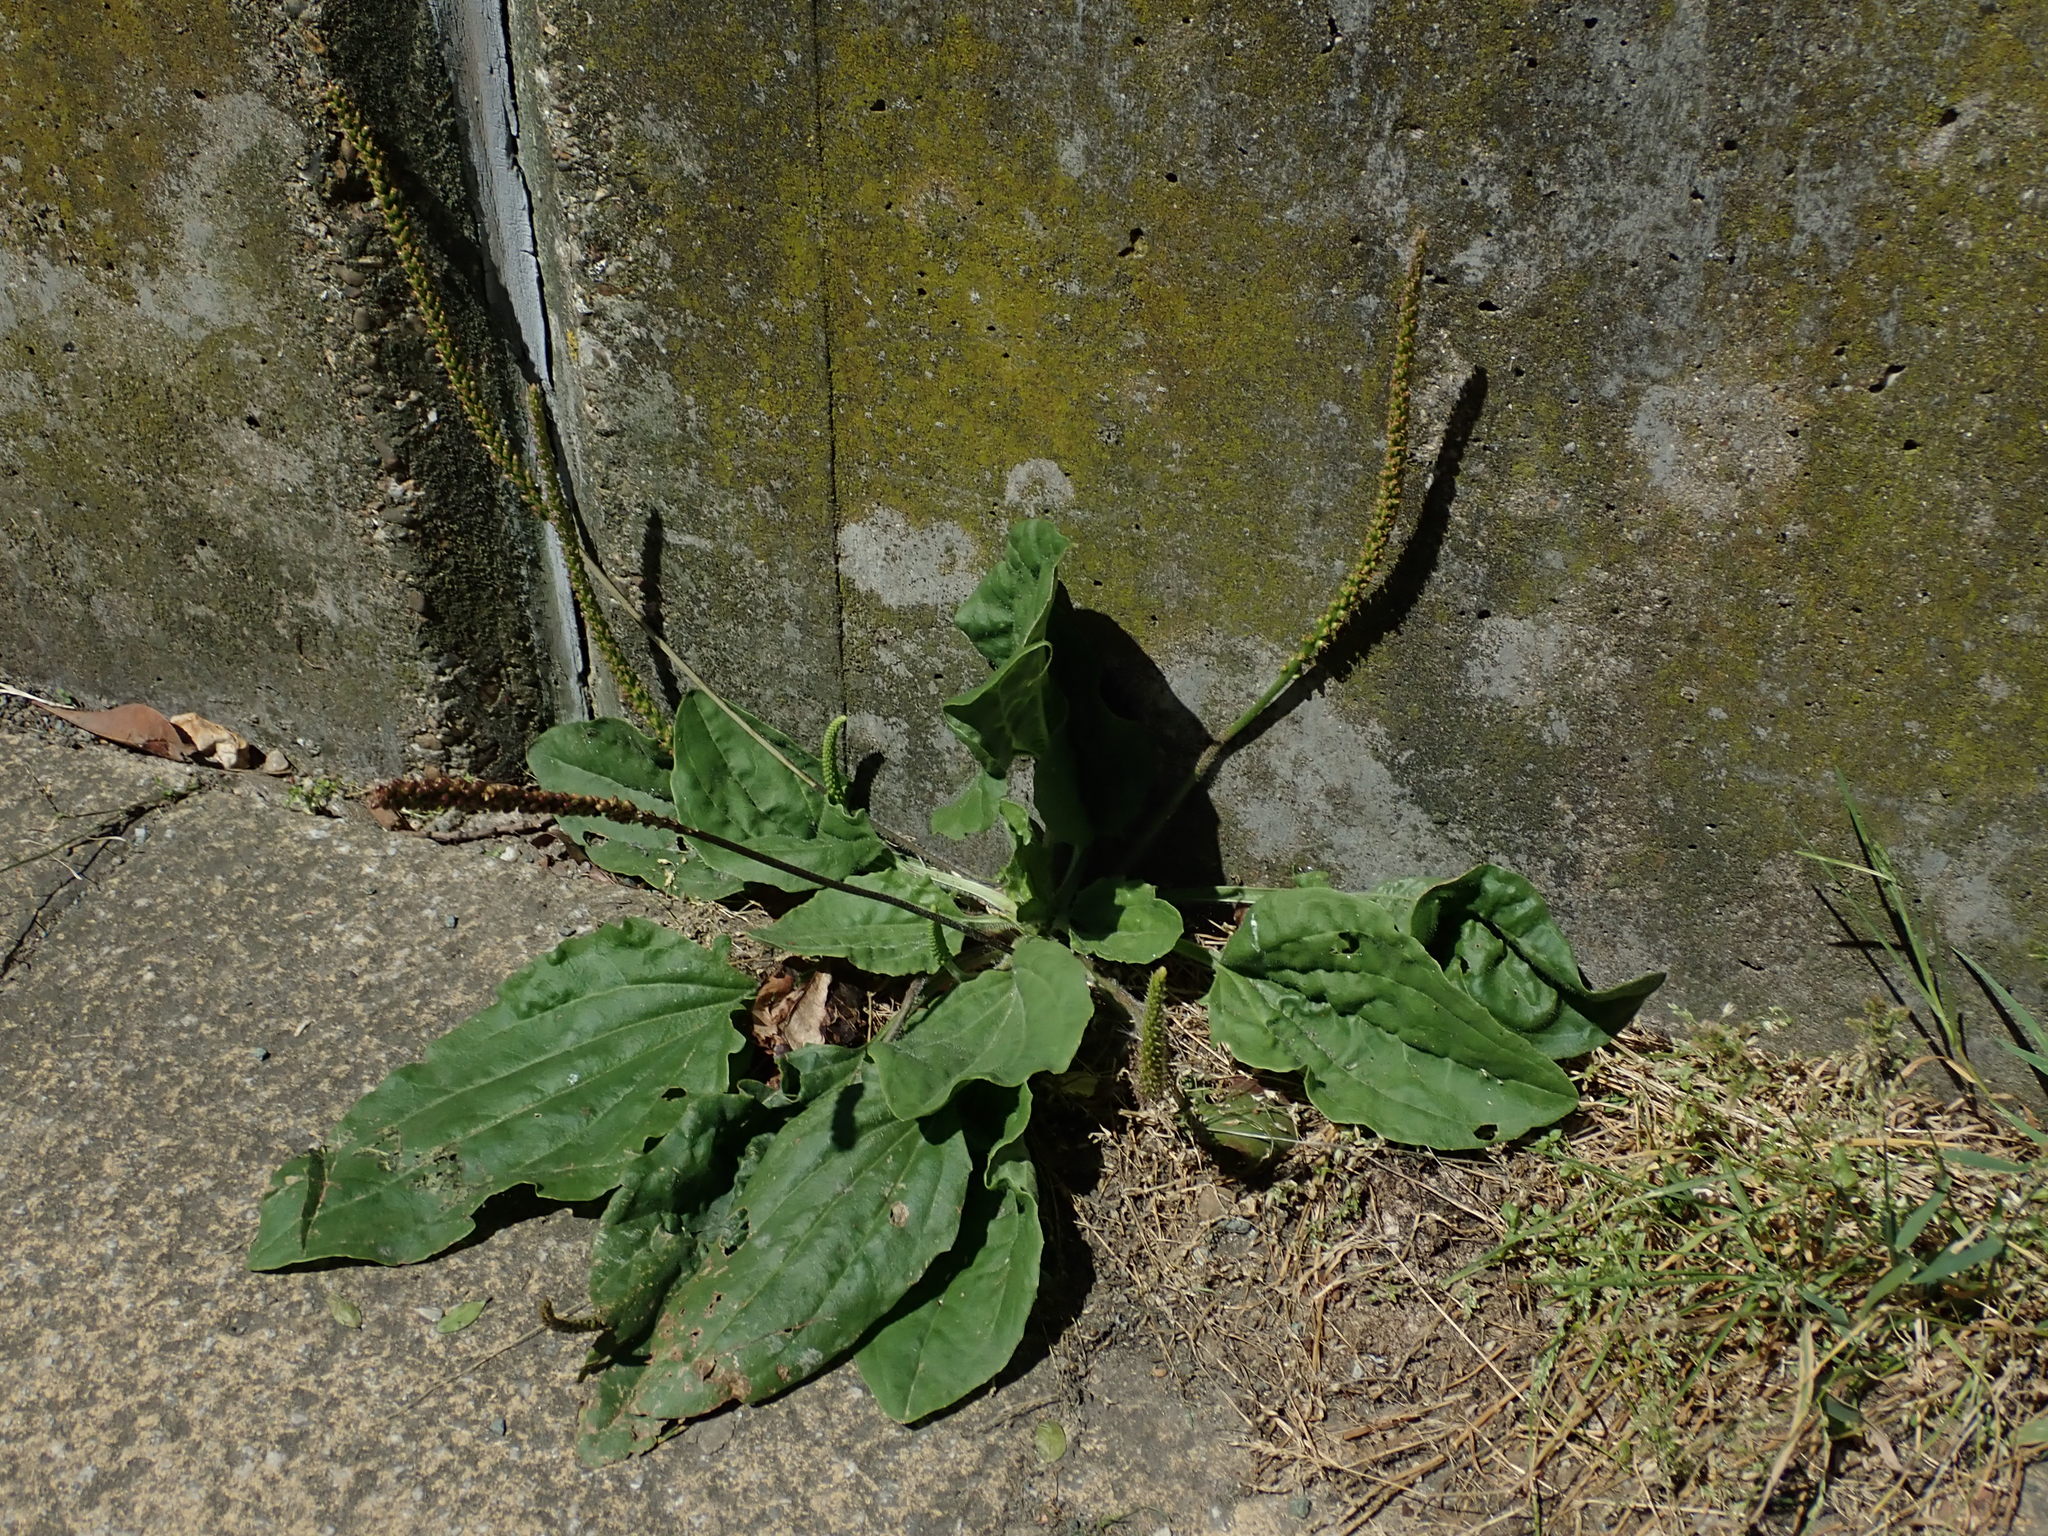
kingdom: Plantae
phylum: Tracheophyta
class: Magnoliopsida
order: Lamiales
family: Plantaginaceae
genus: Plantago
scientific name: Plantago major
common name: Common plantain
